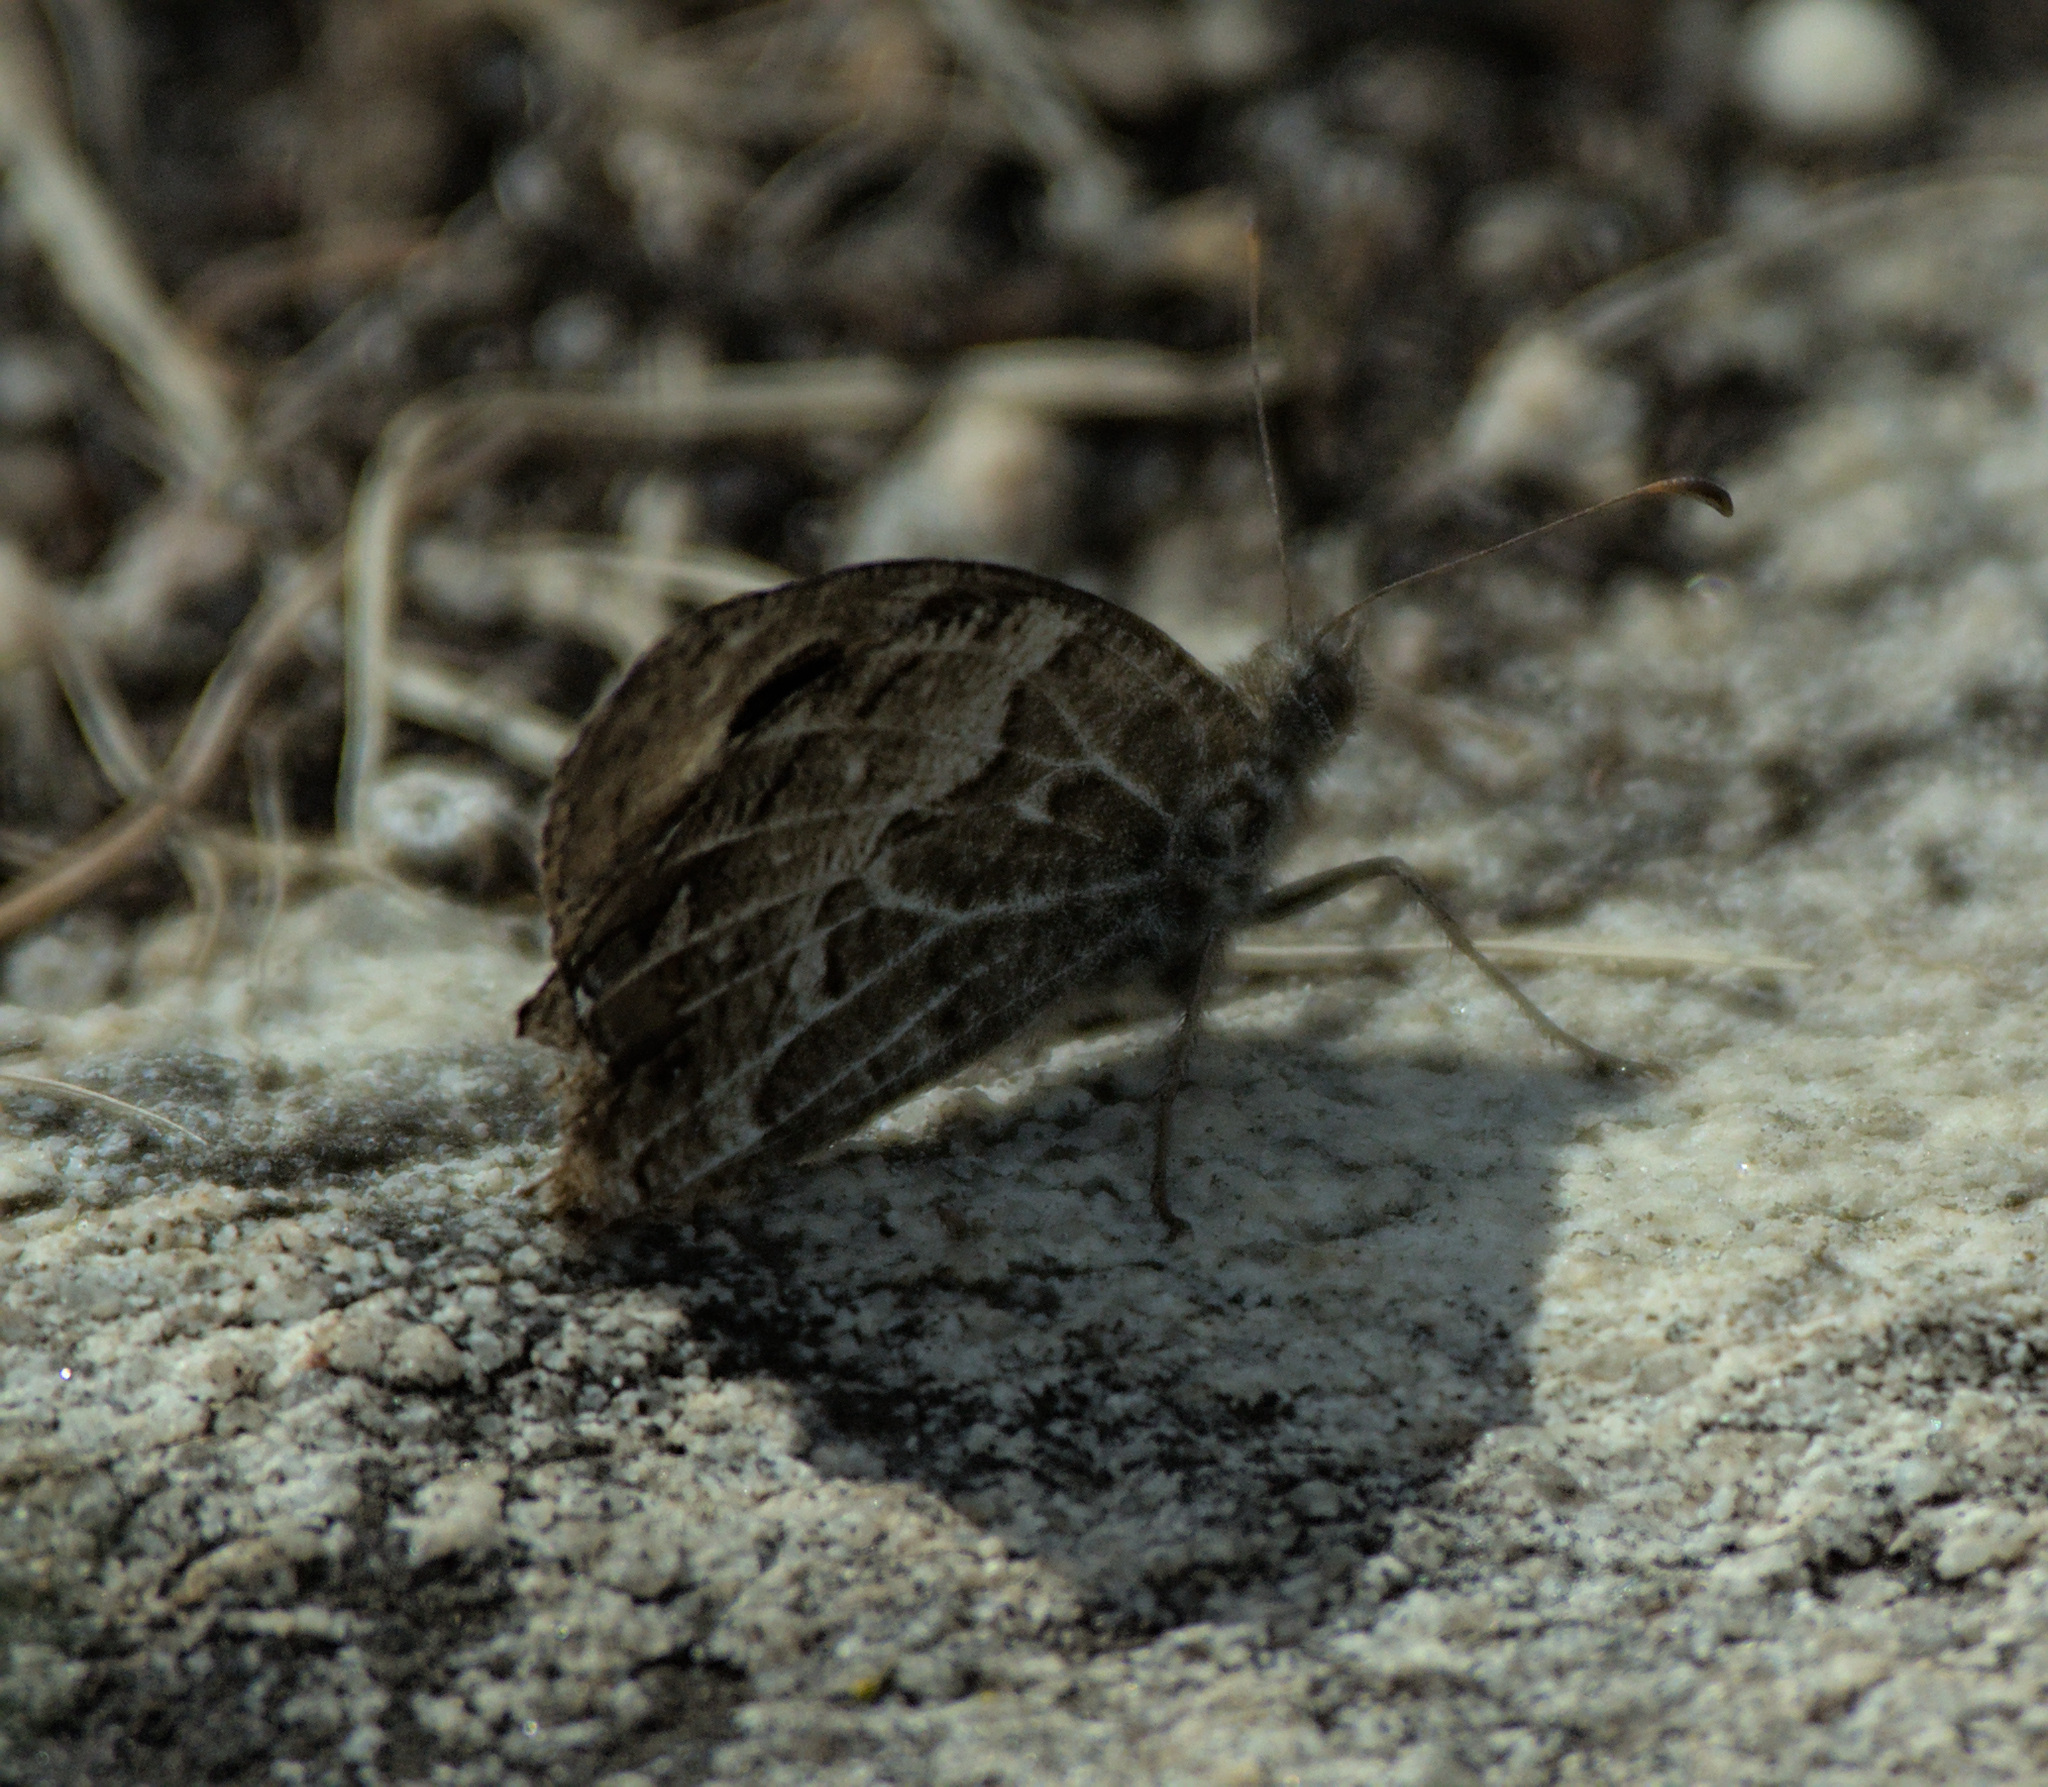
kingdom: Animalia
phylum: Arthropoda
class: Insecta
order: Lepidoptera
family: Nymphalidae
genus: Hipparchia
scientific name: Hipparchia autonoe
